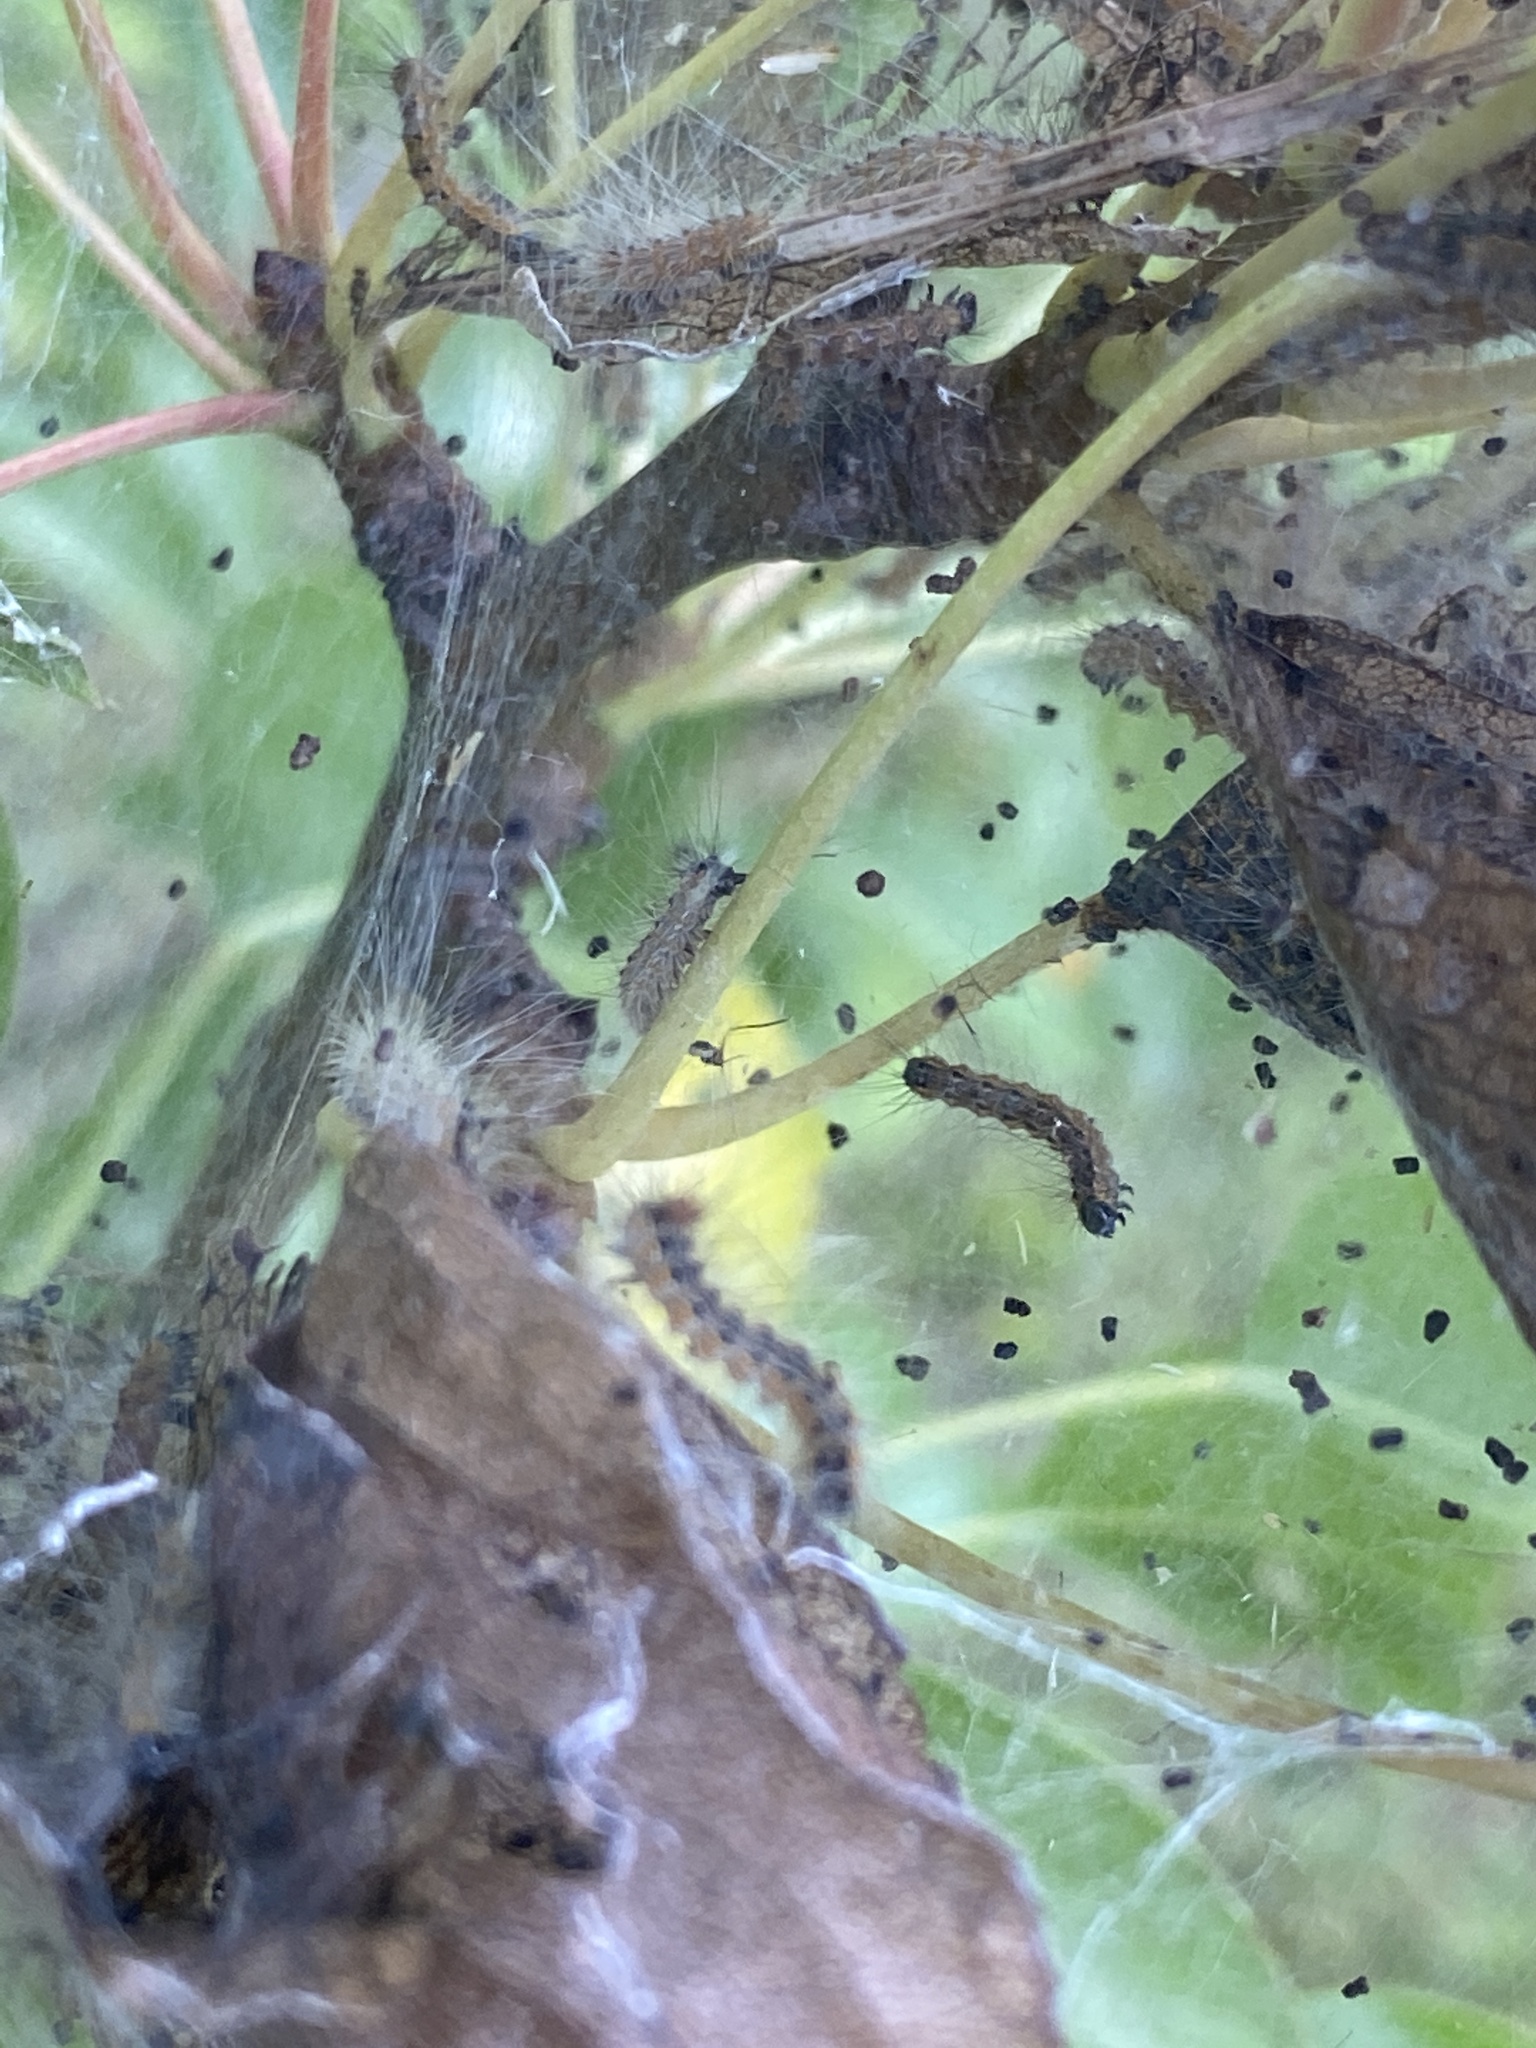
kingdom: Animalia
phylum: Arthropoda
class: Insecta
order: Lepidoptera
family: Erebidae
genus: Hyphantria
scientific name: Hyphantria cunea
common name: American white moth
